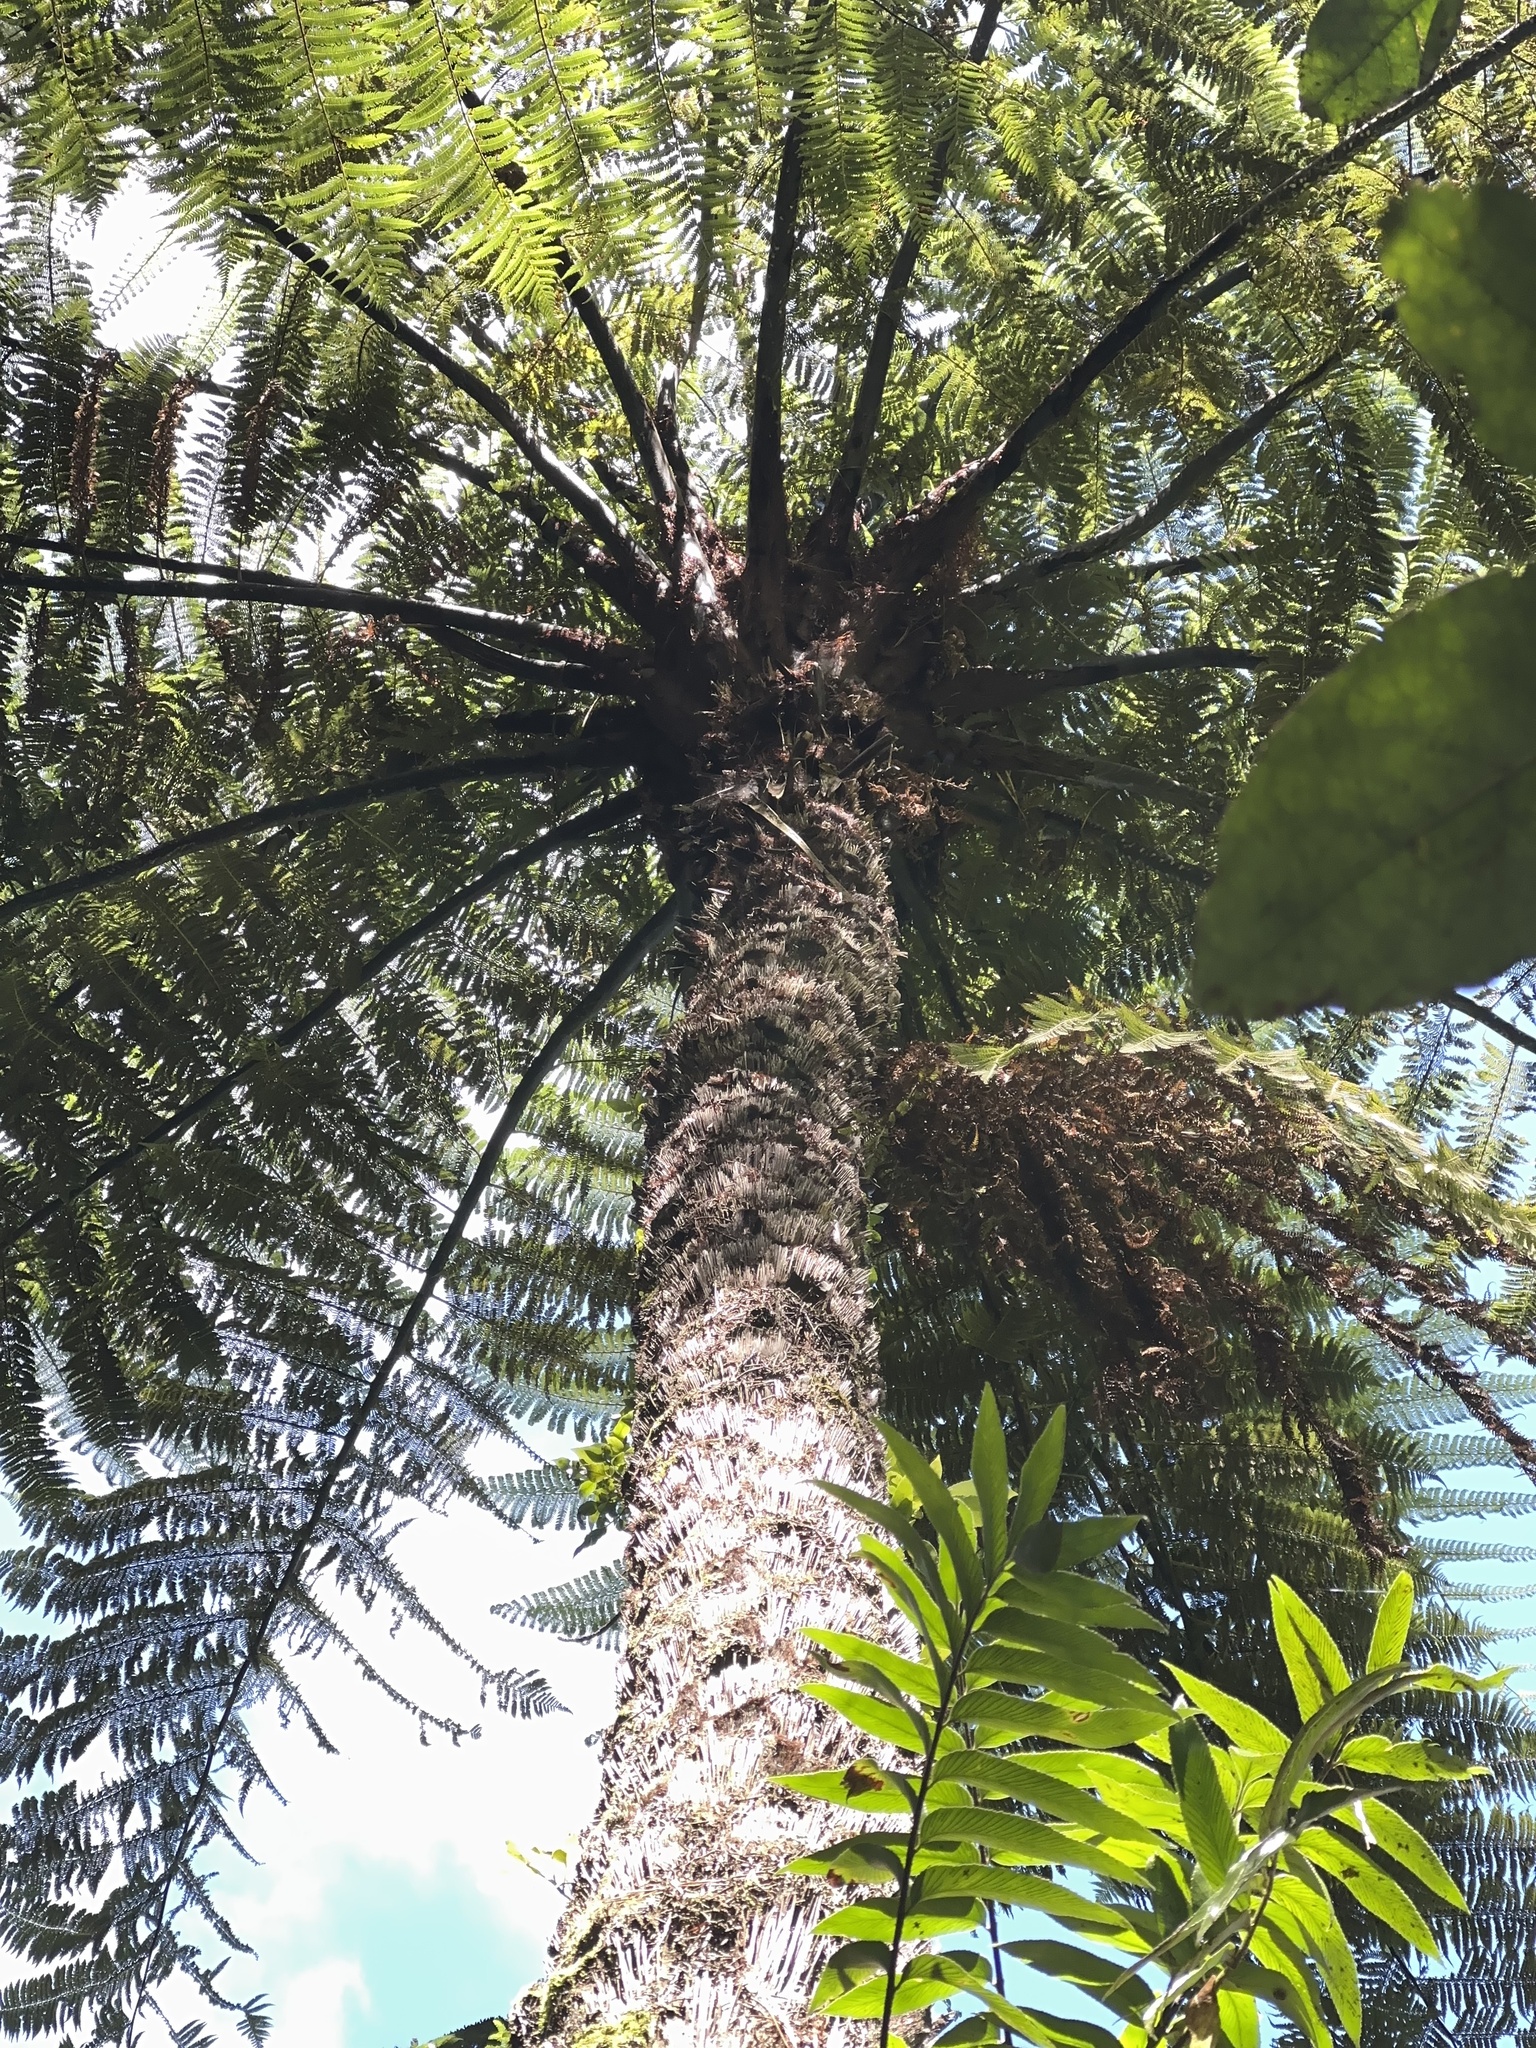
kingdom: Plantae
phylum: Tracheophyta
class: Polypodiopsida
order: Cyatheales
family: Cyatheaceae
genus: Sphaeropteris
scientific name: Sphaeropteris medullaris
